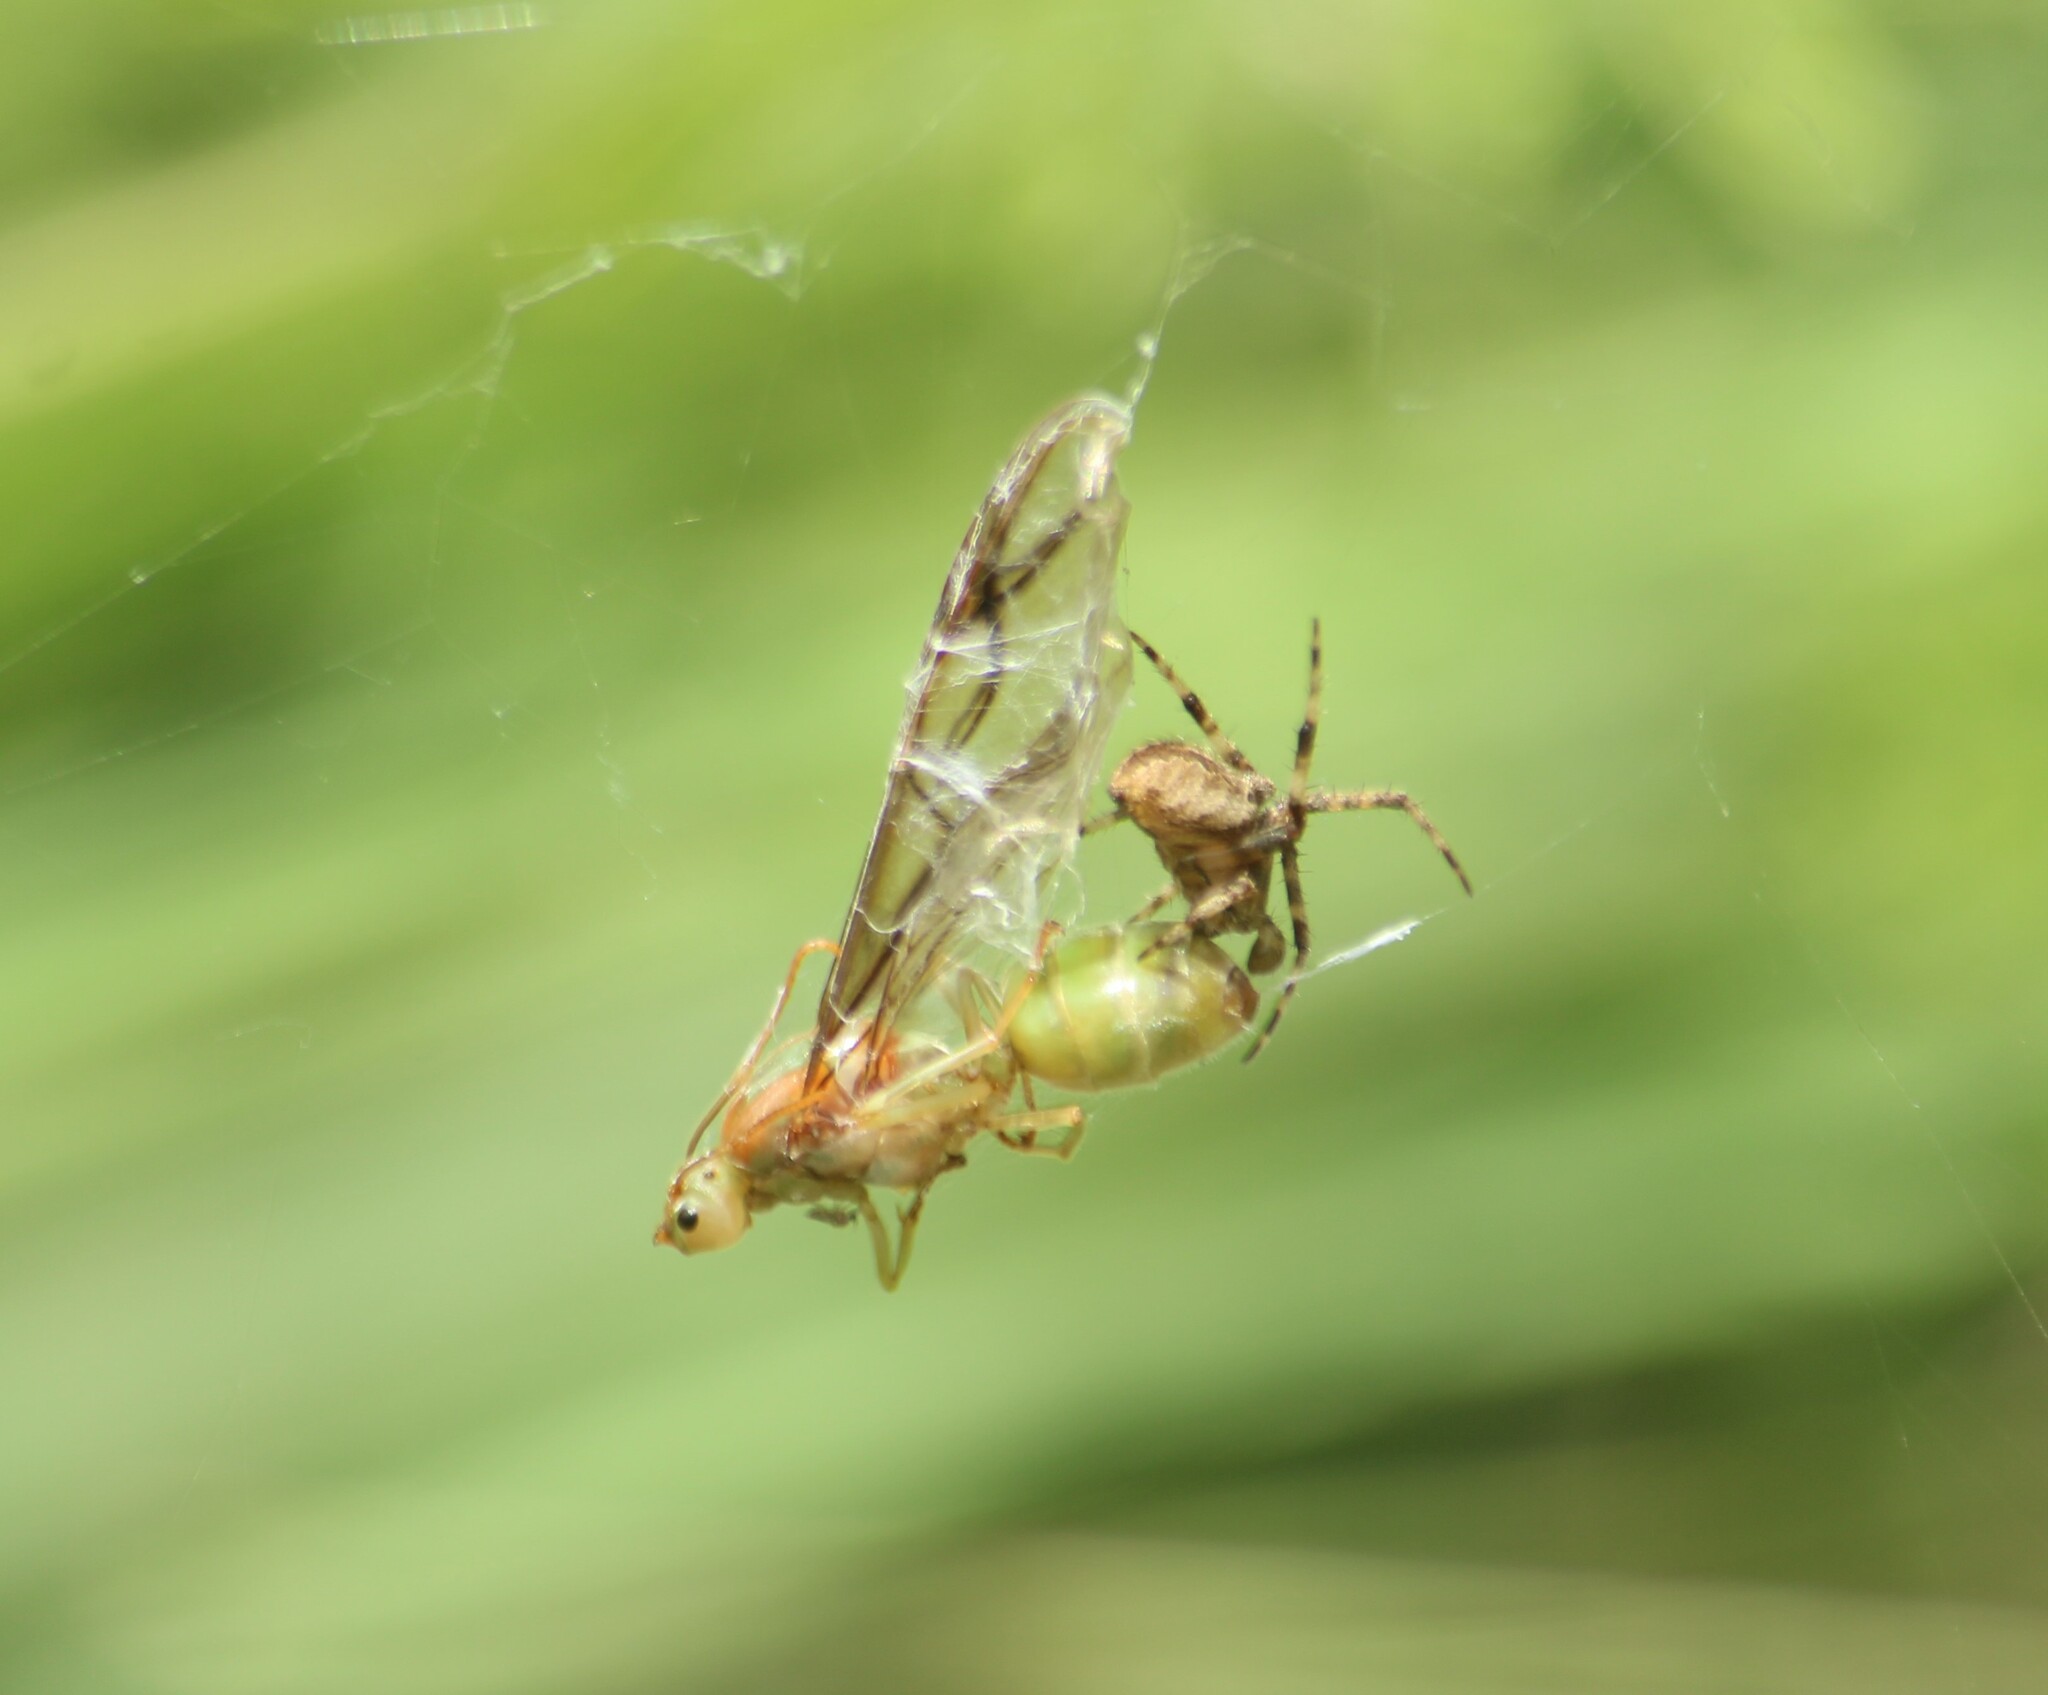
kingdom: Animalia
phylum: Arthropoda
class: Insecta
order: Hymenoptera
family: Formicidae
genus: Oecophylla
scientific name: Oecophylla smaragdina
